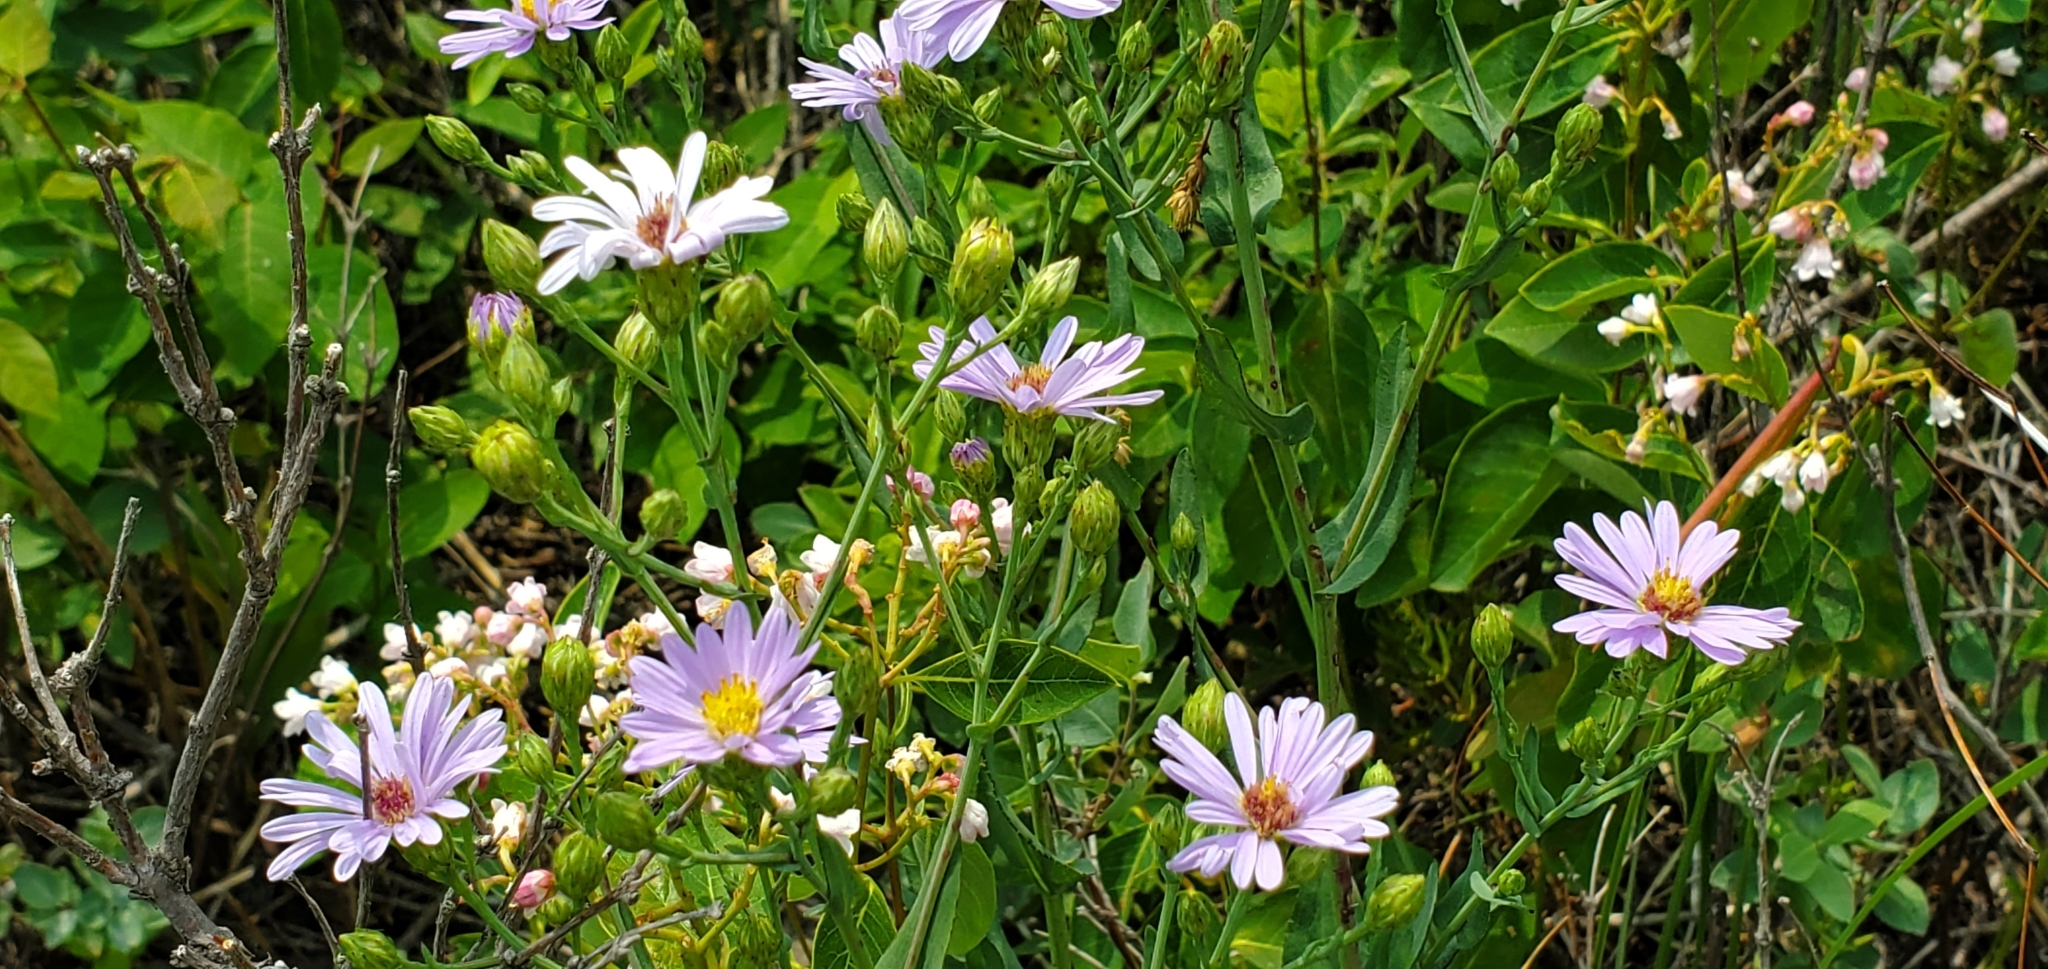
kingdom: Plantae
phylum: Tracheophyta
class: Magnoliopsida
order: Asterales
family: Asteraceae
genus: Symphyotrichum
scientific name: Symphyotrichum laeve
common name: Glaucous aster
